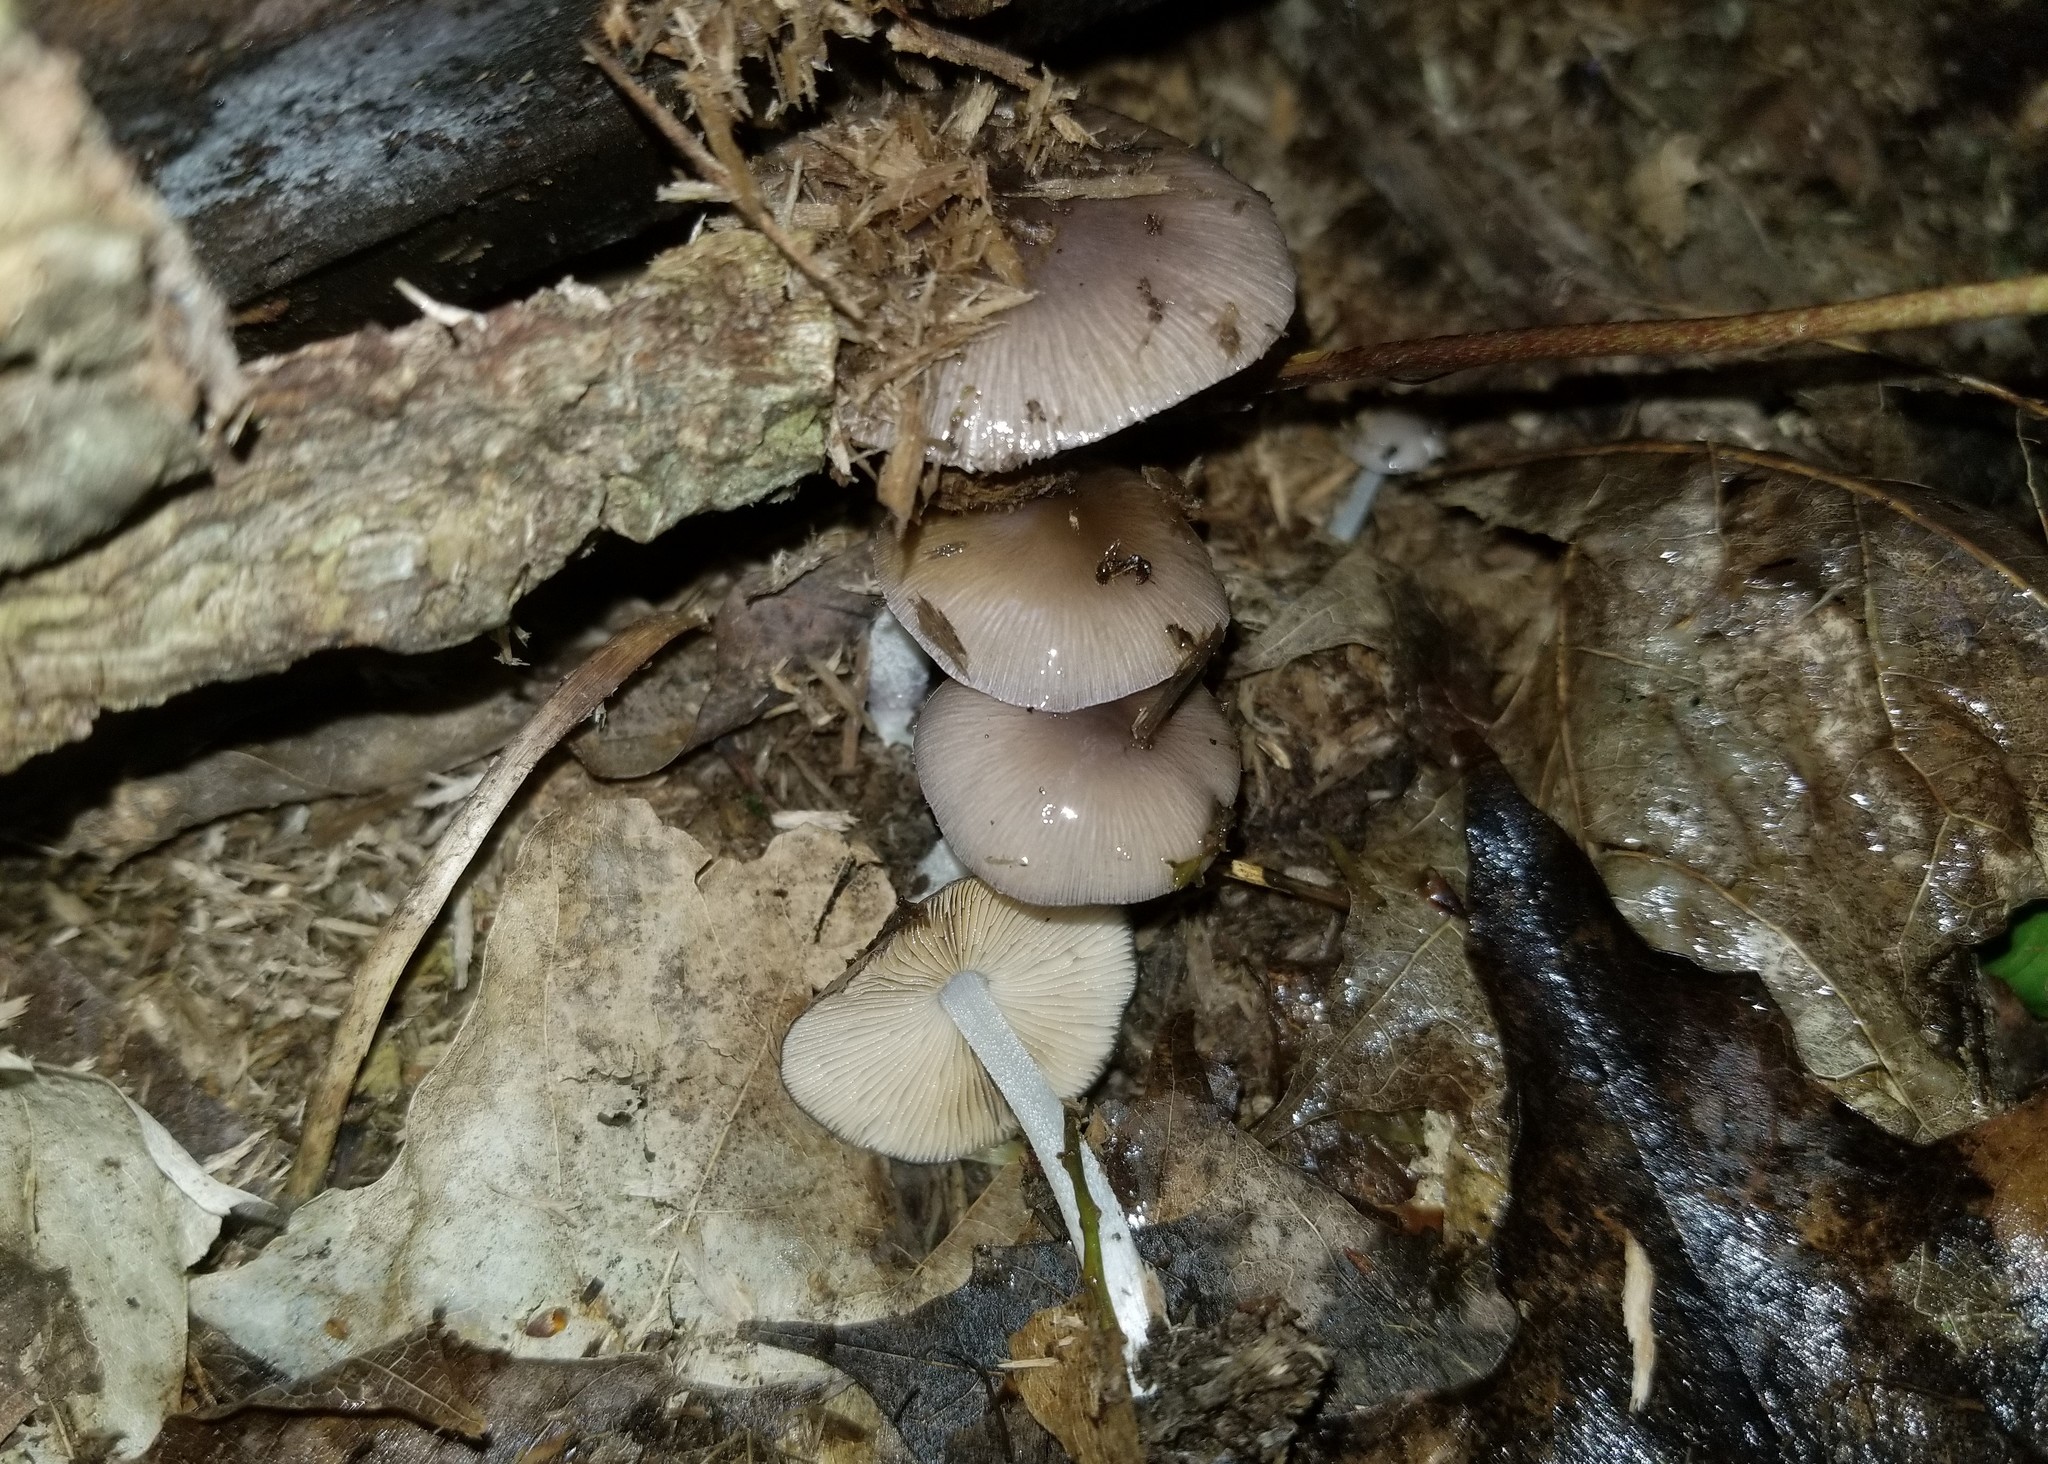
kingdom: Fungi
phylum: Basidiomycota
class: Agaricomycetes
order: Agaricales
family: Bolbitiaceae
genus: Bolbitius
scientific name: Bolbitius reticulatus
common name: Netted fieldcap
